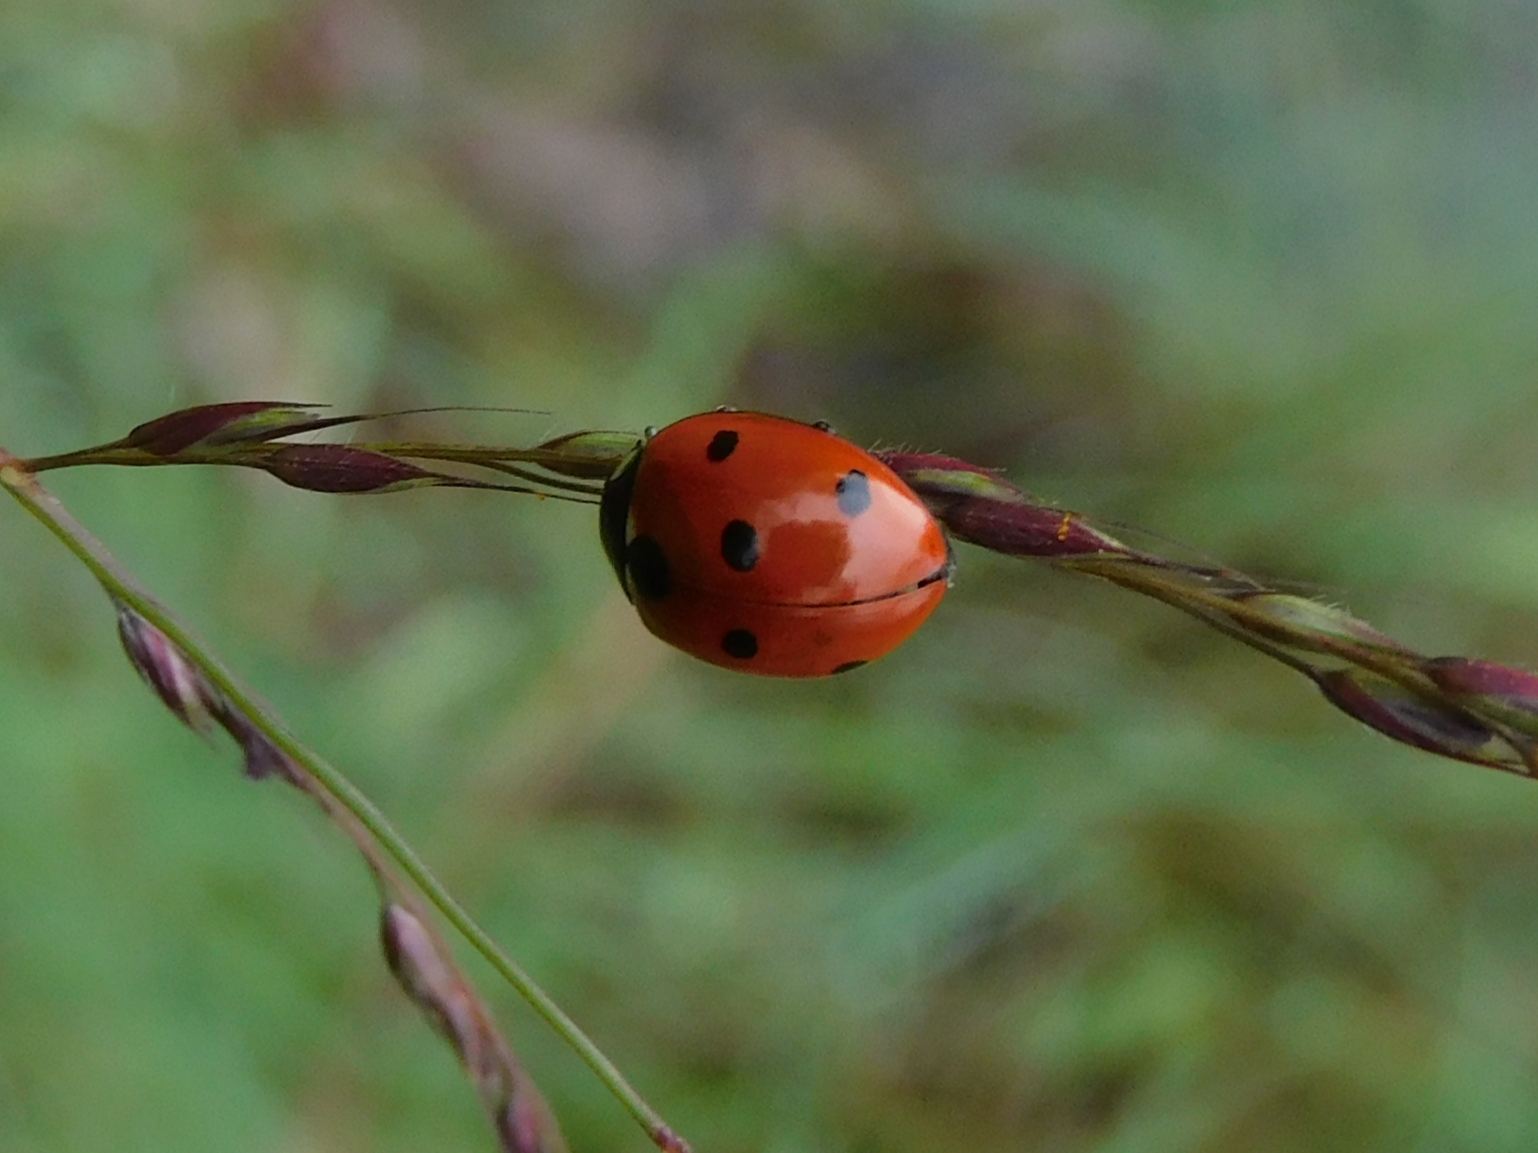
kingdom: Animalia
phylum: Arthropoda
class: Insecta
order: Coleoptera
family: Coccinellidae
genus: Coccinella
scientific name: Coccinella septempunctata
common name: Sevenspotted lady beetle
